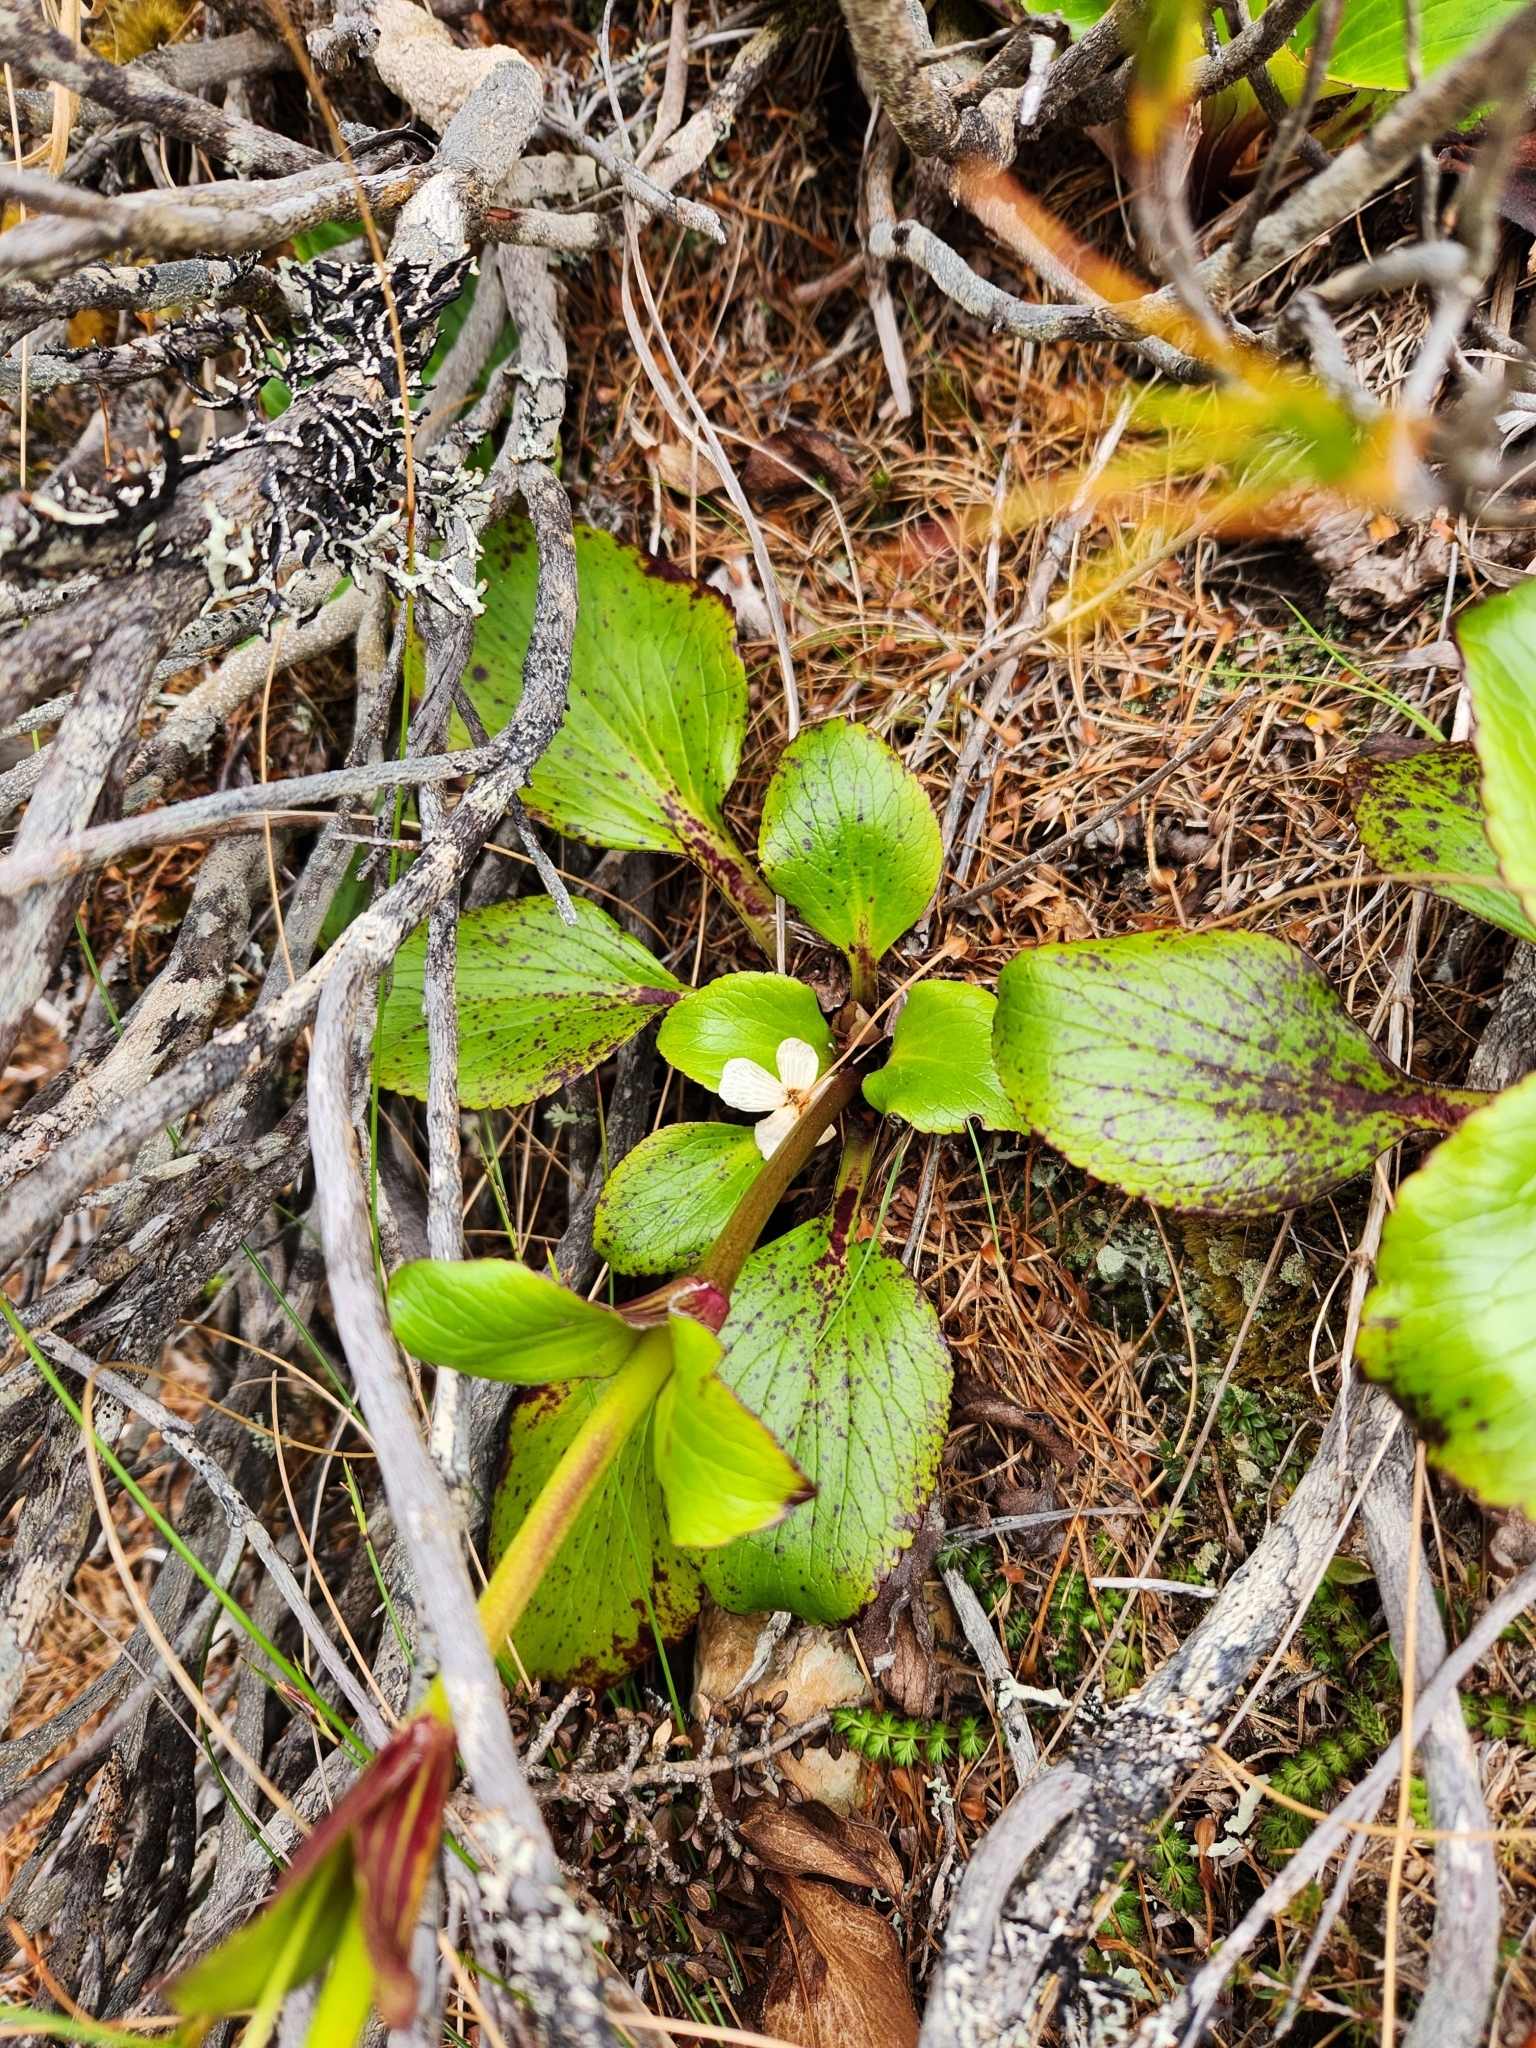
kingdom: Plantae
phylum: Tracheophyta
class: Magnoliopsida
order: Lamiales
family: Plantaginaceae
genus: Ourisia
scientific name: Ourisia calycina
